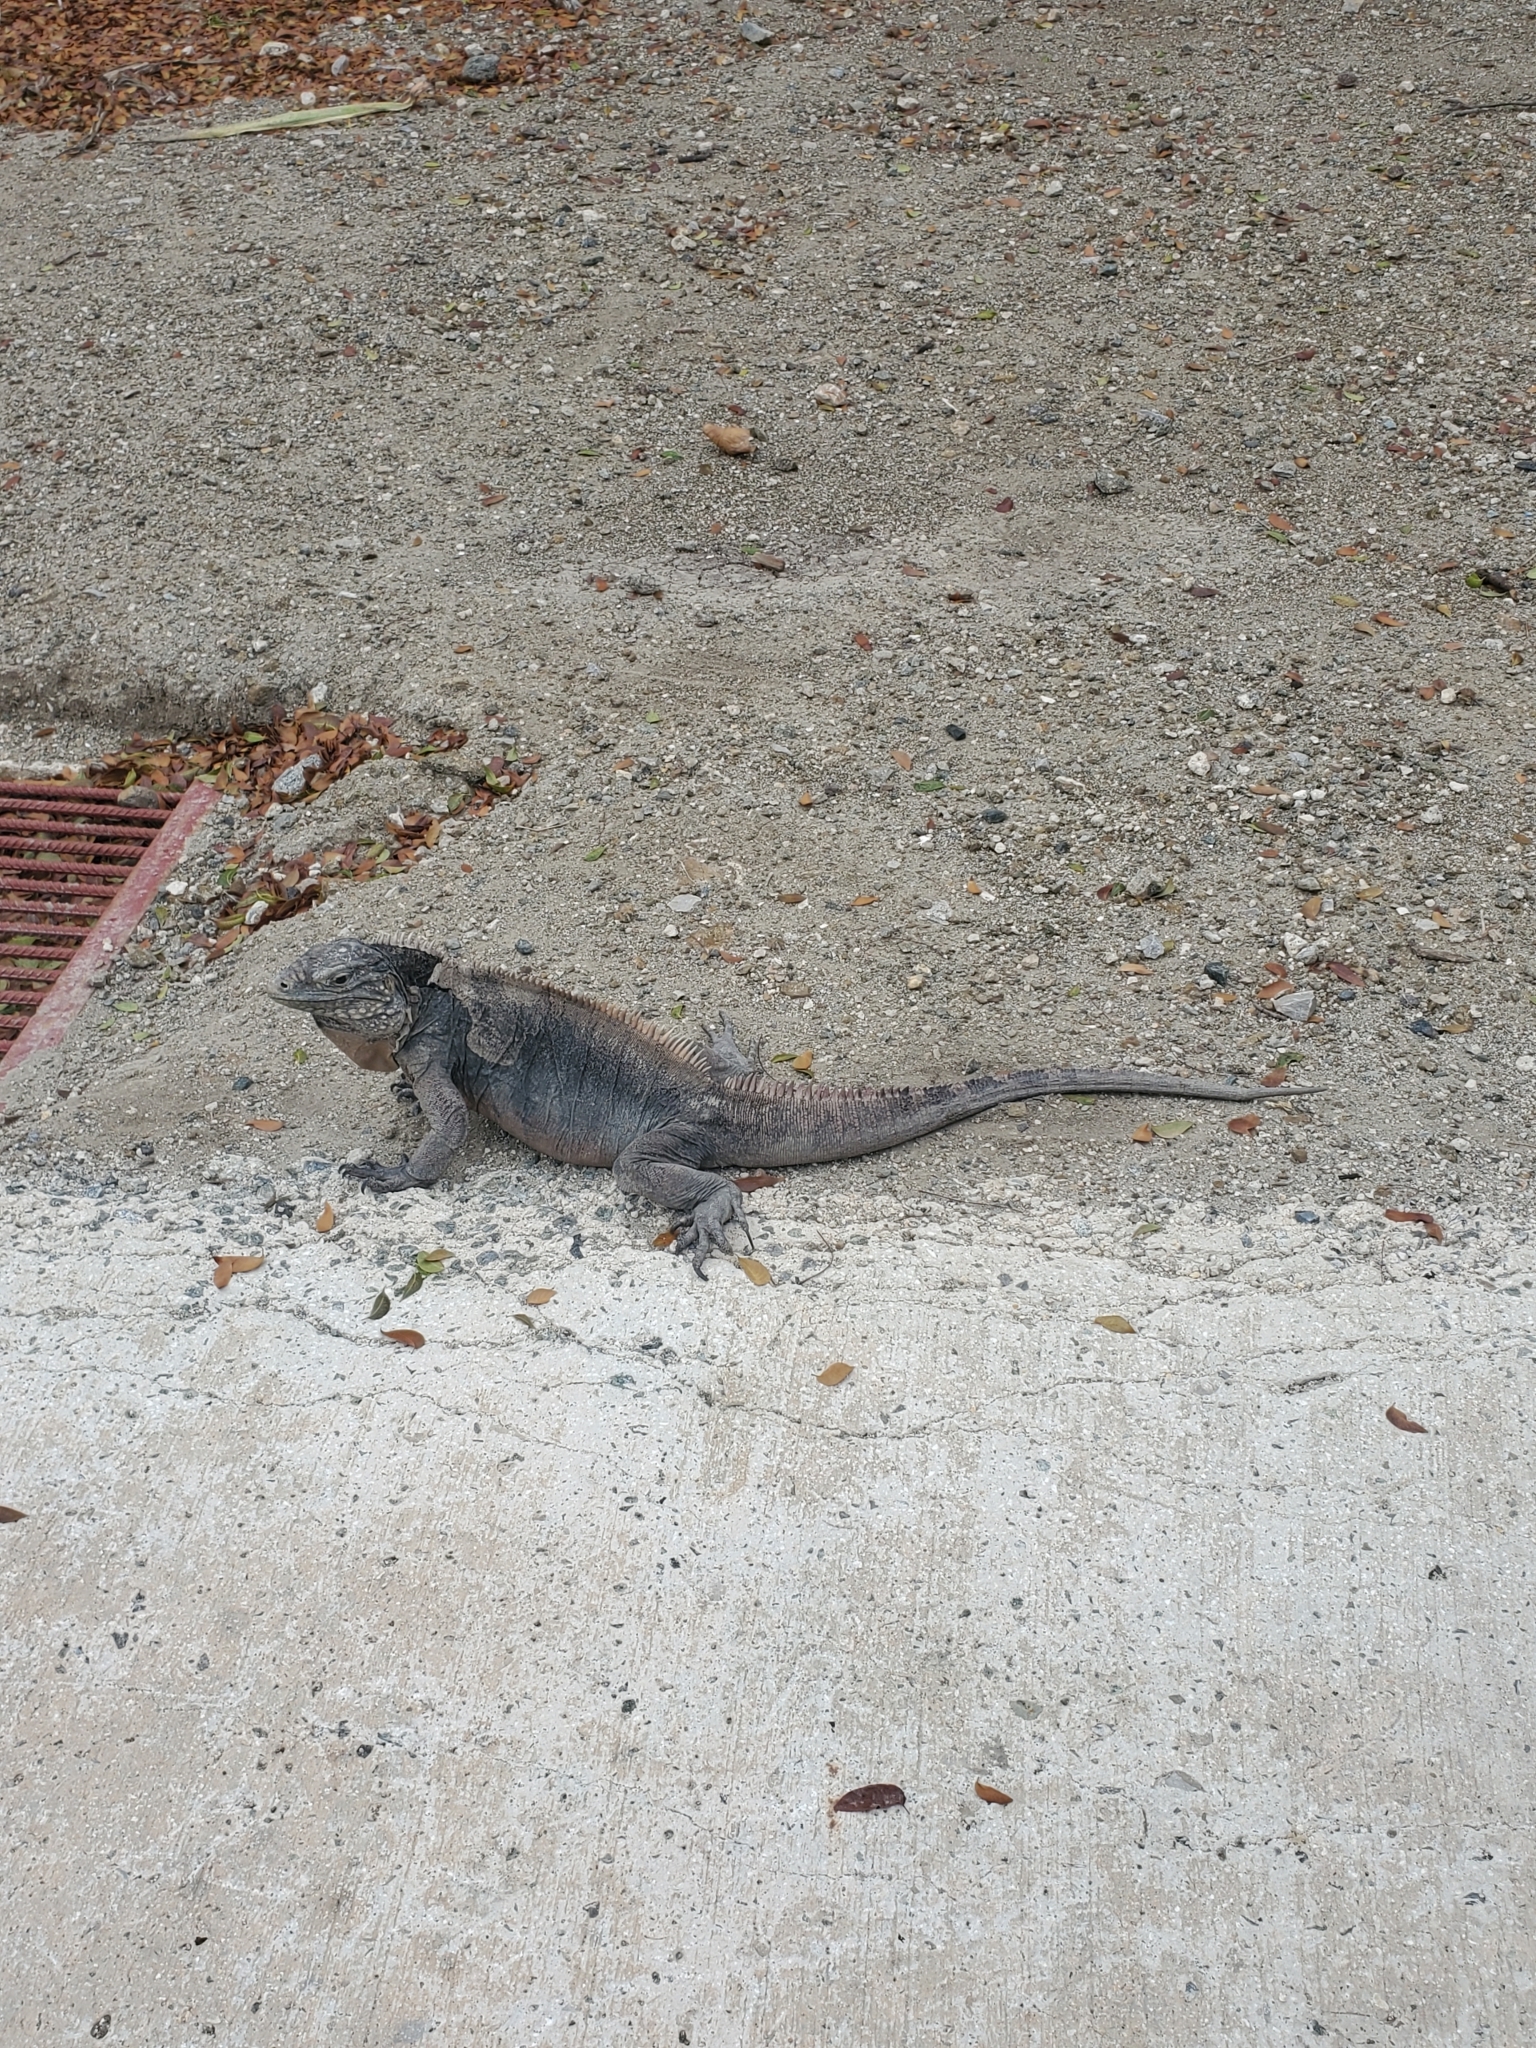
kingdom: Animalia
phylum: Chordata
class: Squamata
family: Iguanidae
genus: Cyclura
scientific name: Cyclura nubila
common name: Cayman islands ground iguana
